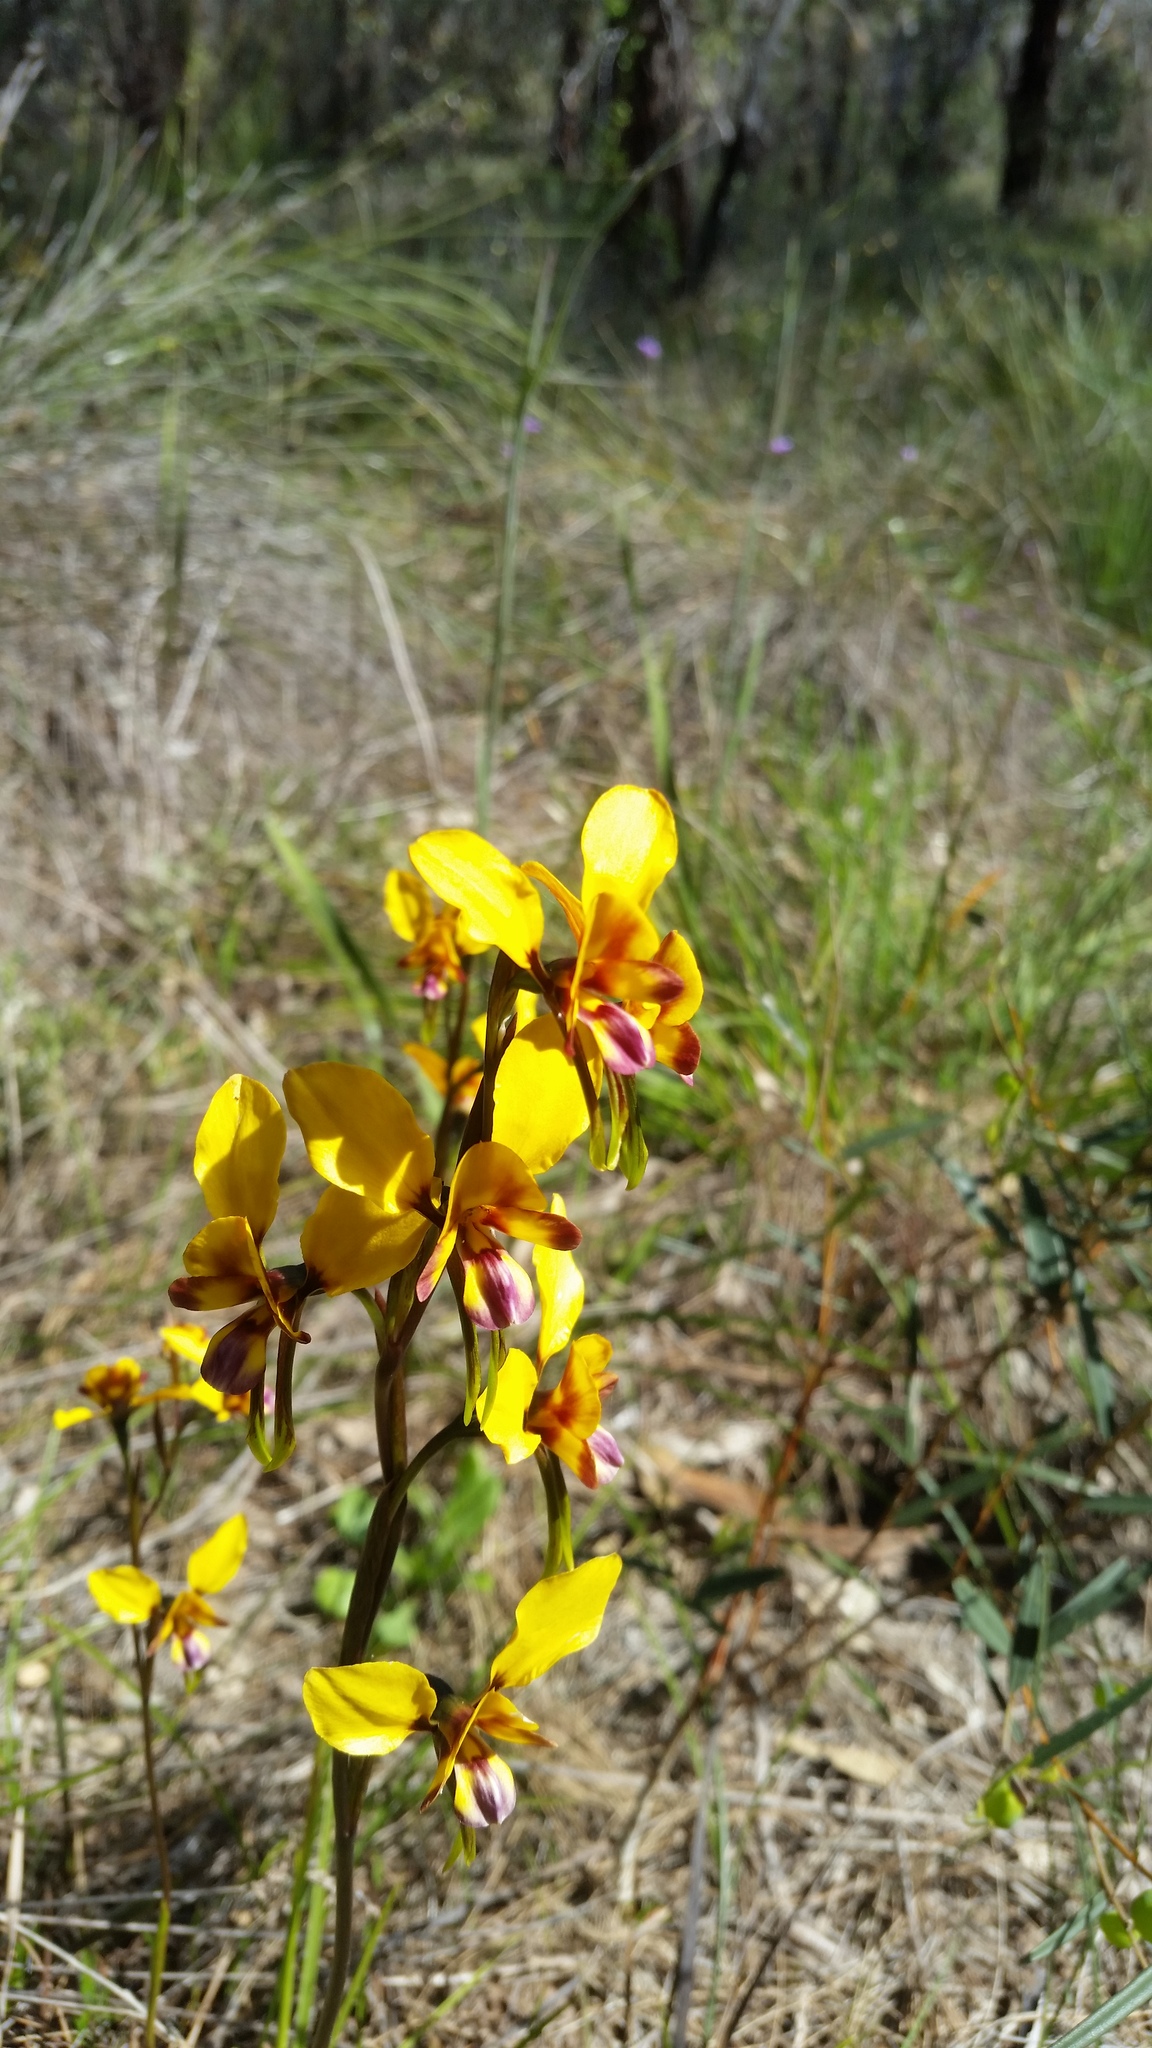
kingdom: Plantae
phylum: Tracheophyta
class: Liliopsida
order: Asparagales
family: Orchidaceae
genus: Diuris
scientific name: Diuris magnifica
